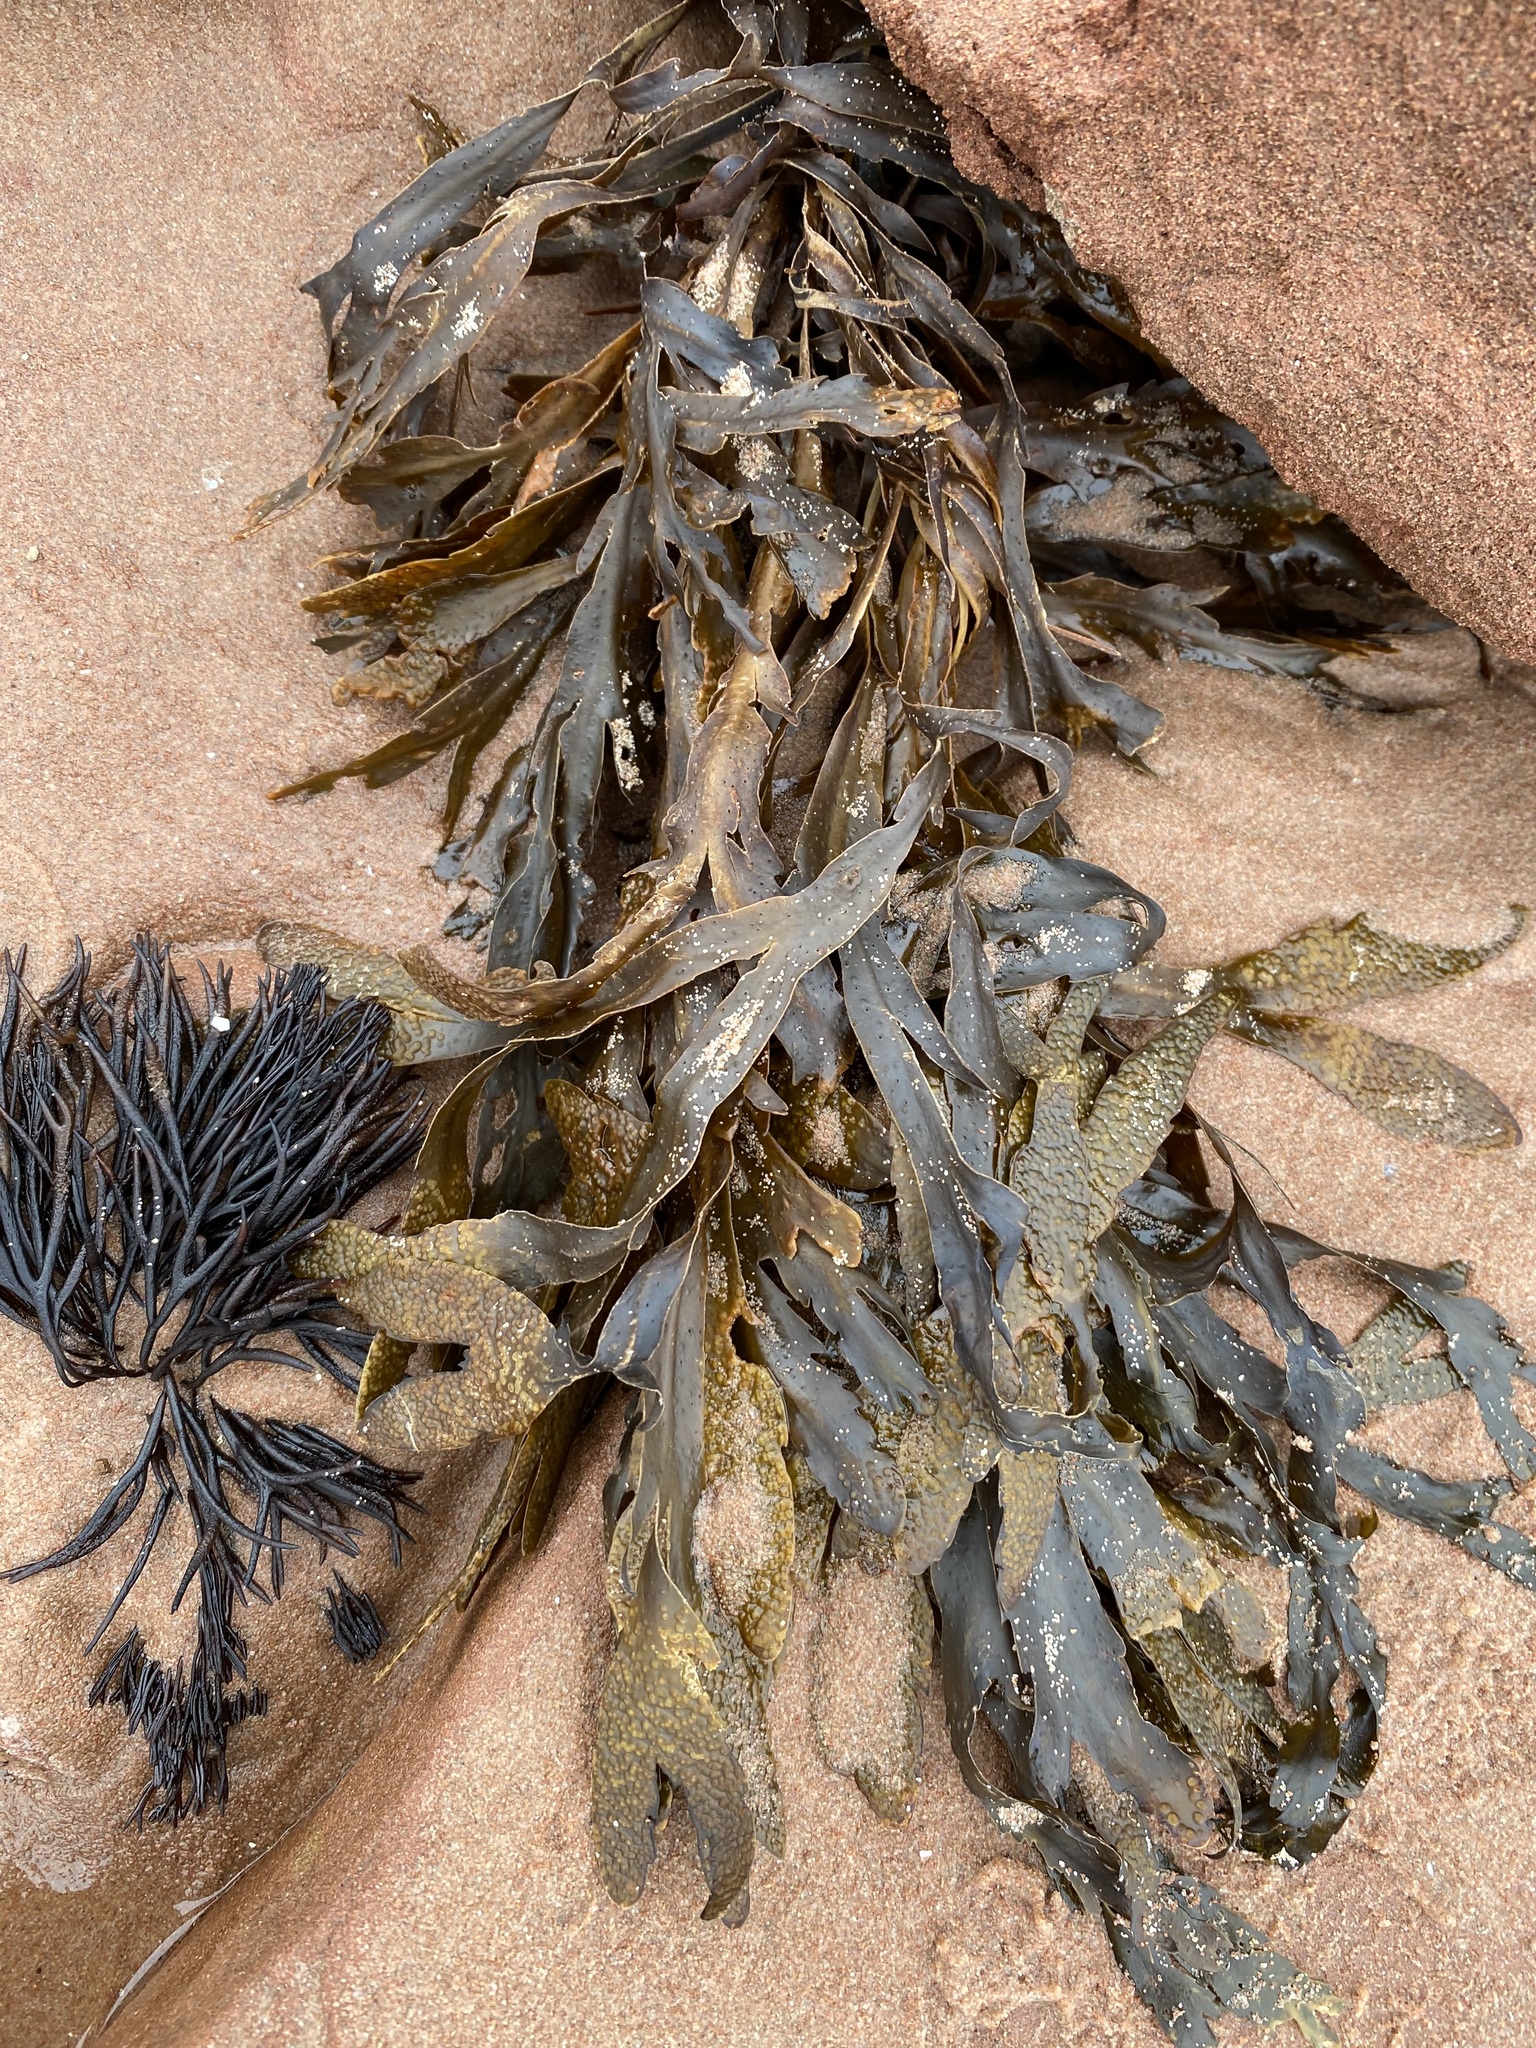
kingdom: Chromista
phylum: Ochrophyta
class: Phaeophyceae
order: Fucales
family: Fucaceae
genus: Fucus
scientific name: Fucus serratus
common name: Toothed wrack
